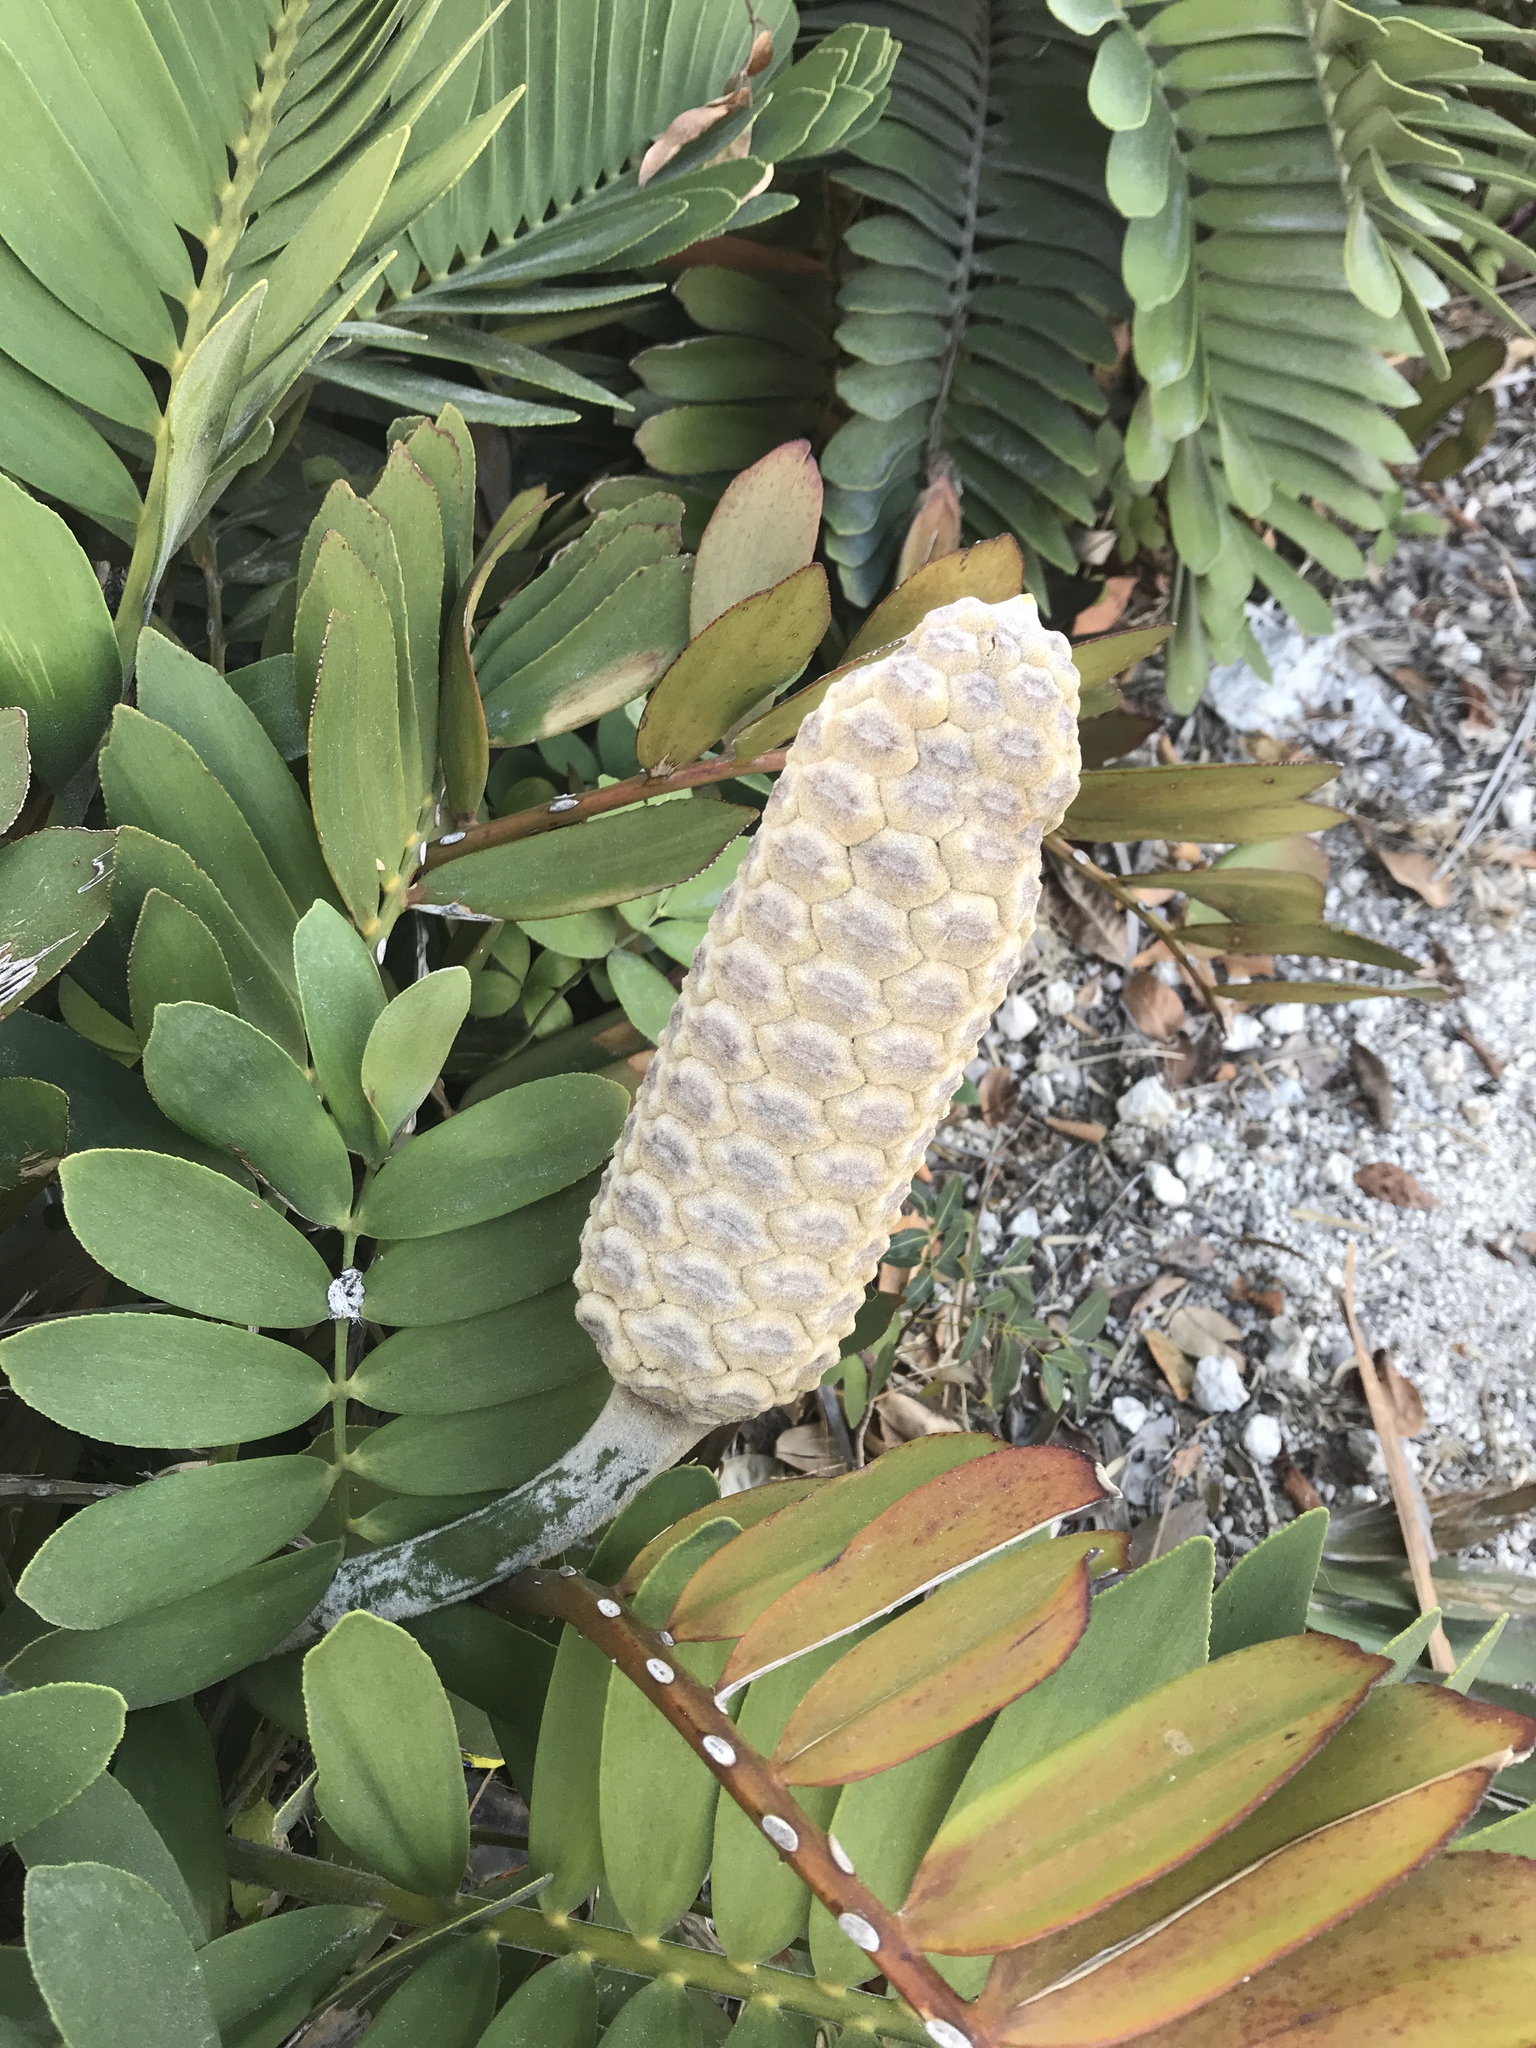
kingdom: Plantae
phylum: Tracheophyta
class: Cycadopsida
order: Cycadales
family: Zamiaceae
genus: Zamia
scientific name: Zamia furfuracea
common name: Cardboard palm
